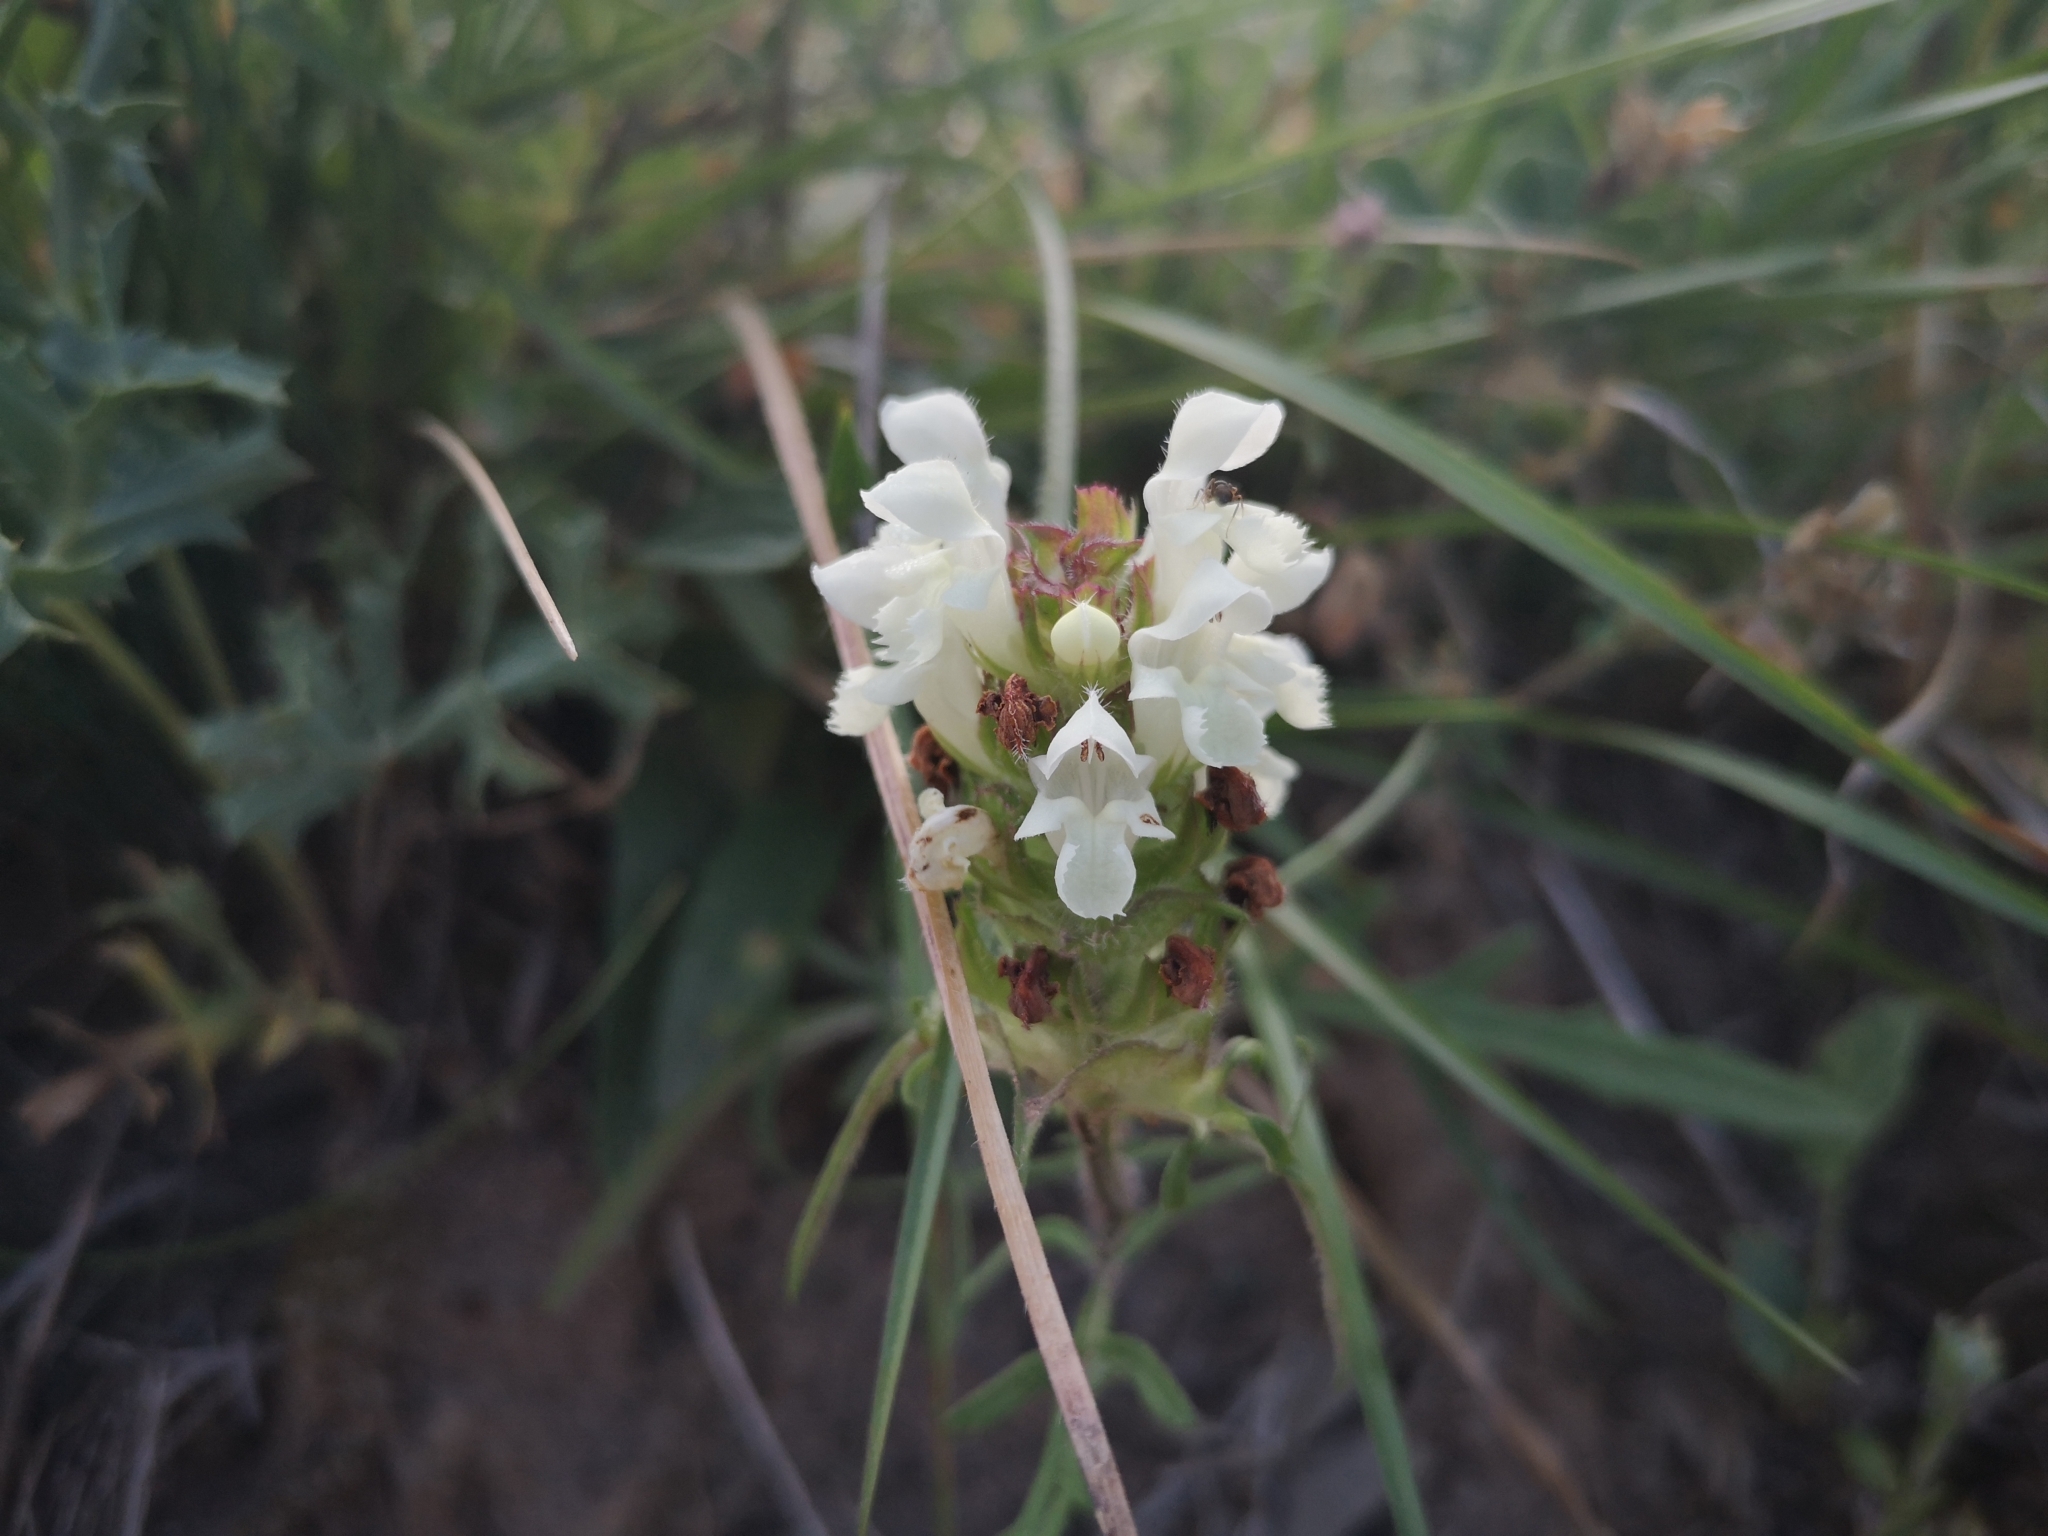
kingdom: Plantae
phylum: Tracheophyta
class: Magnoliopsida
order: Lamiales
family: Lamiaceae
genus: Prunella
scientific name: Prunella laciniata
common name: Cut-leaved selfheal
